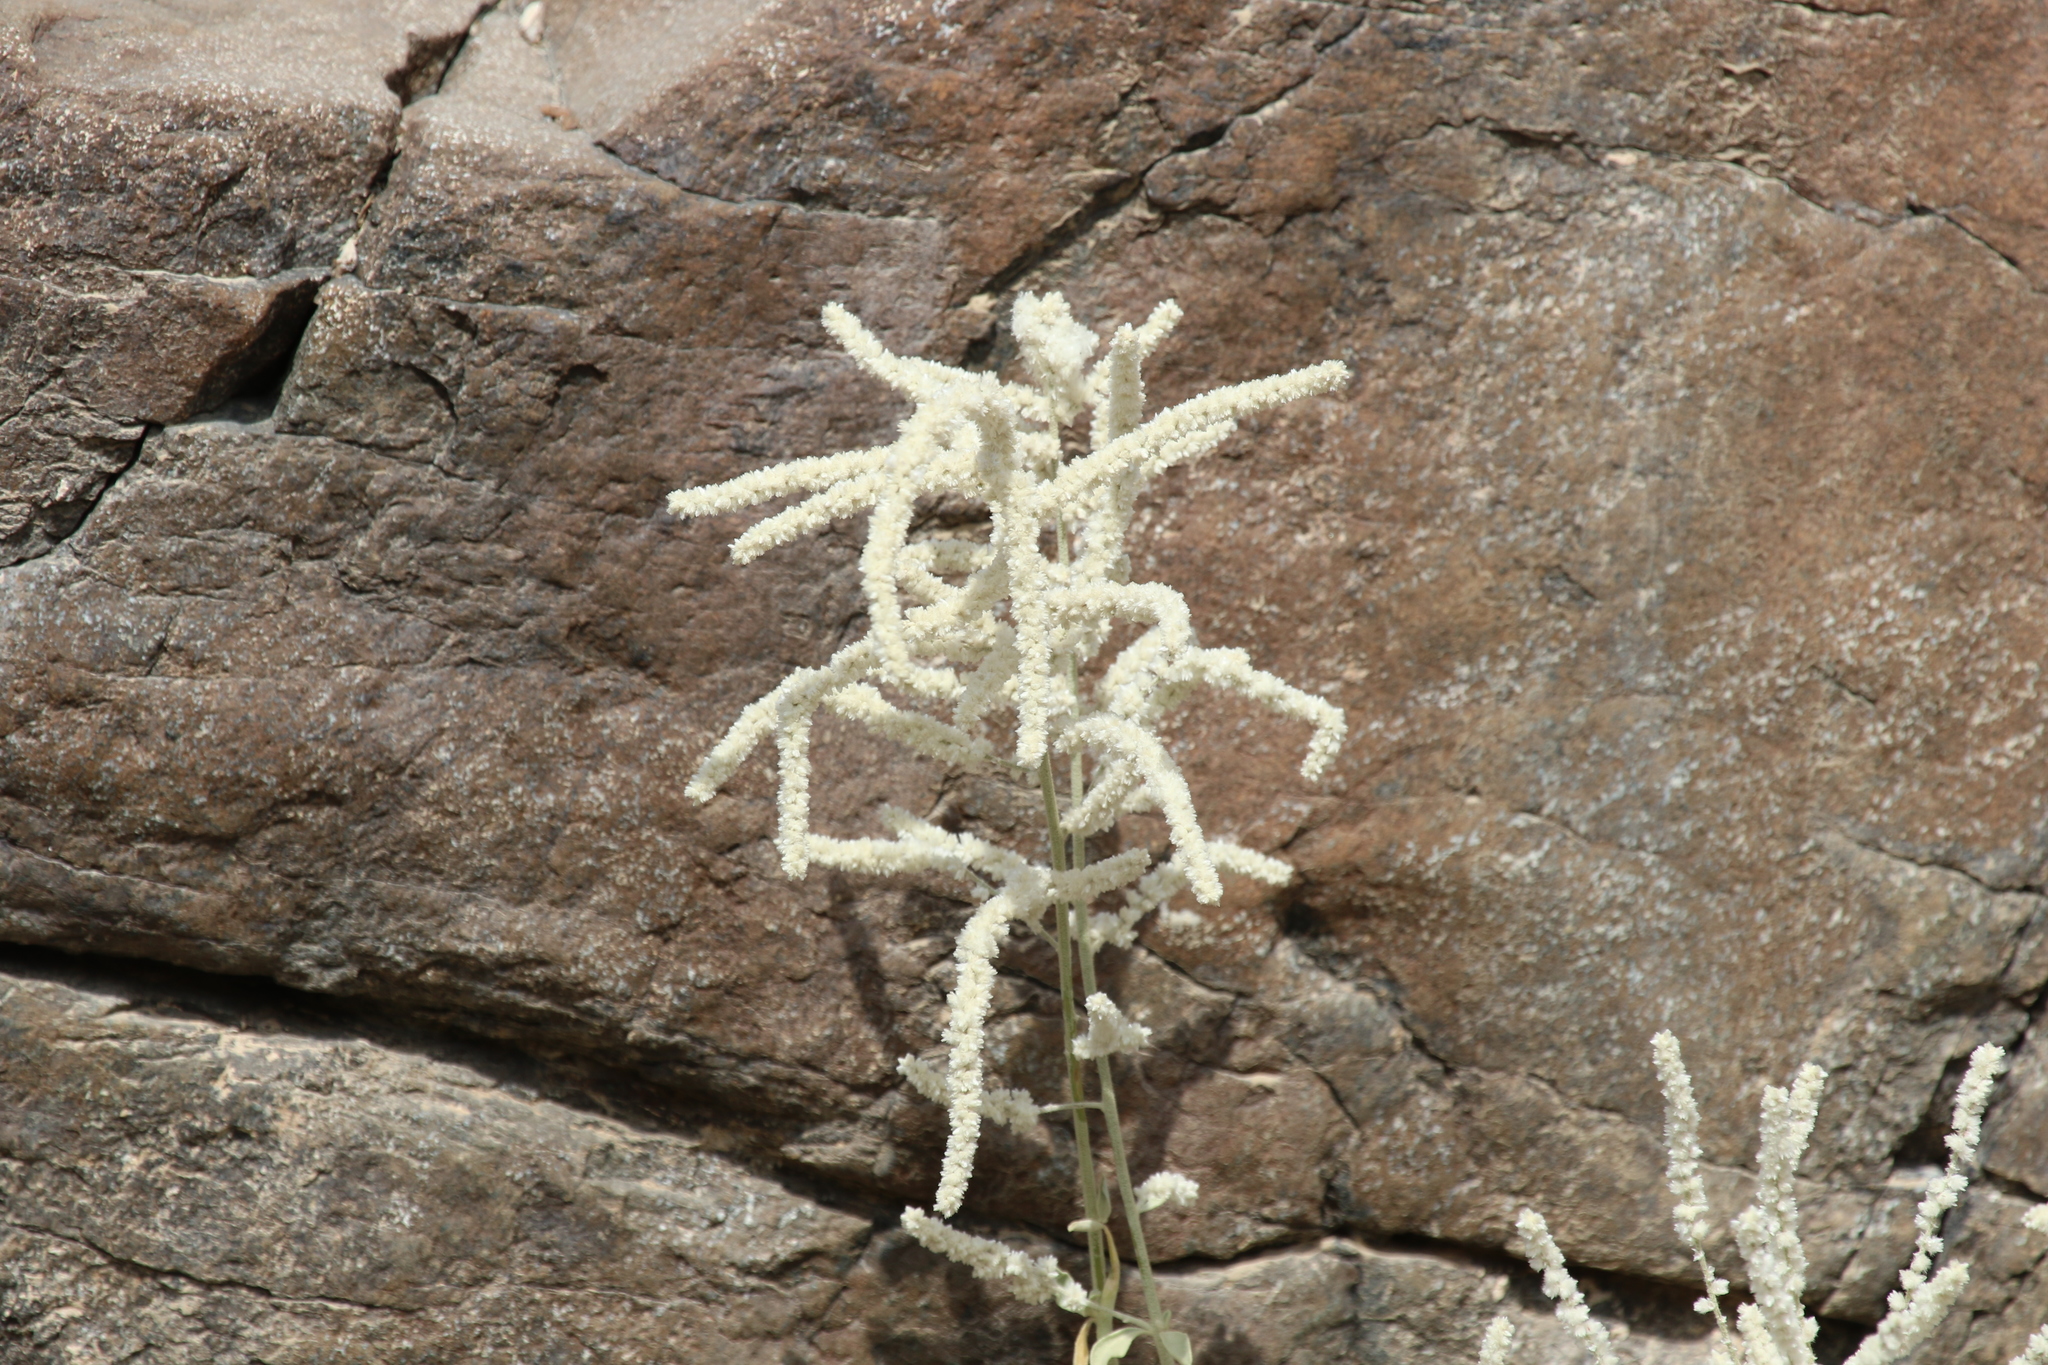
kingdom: Plantae
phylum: Tracheophyta
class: Magnoliopsida
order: Caryophyllales
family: Amaranthaceae
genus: Aerva
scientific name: Aerva javanica
